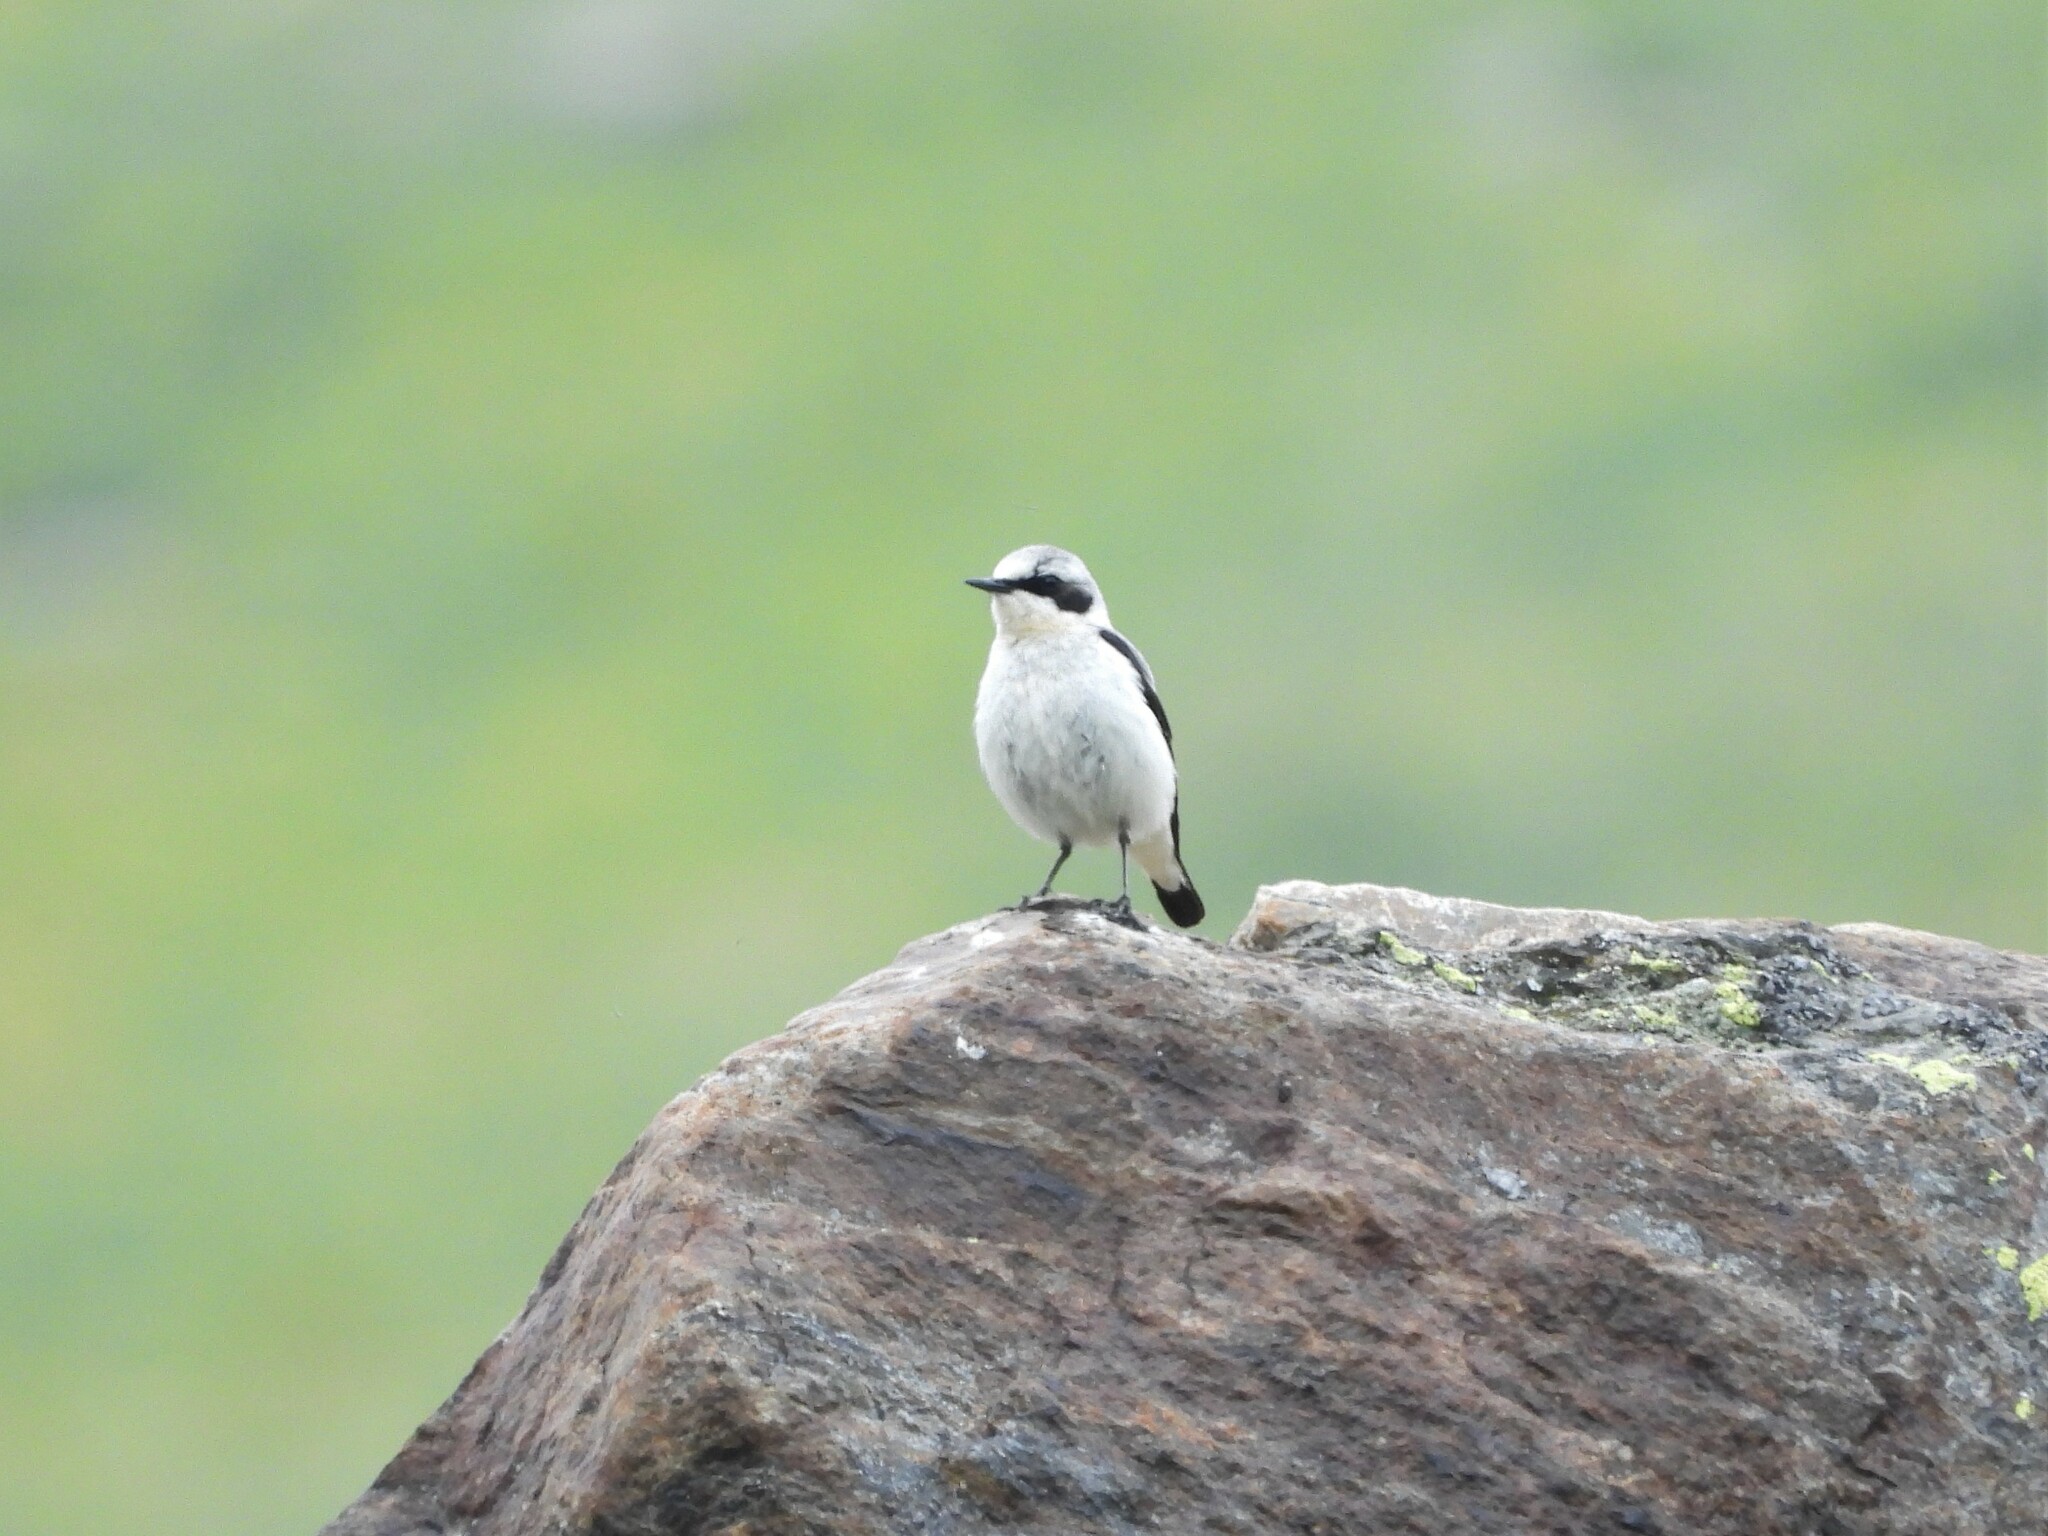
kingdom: Animalia
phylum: Chordata
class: Aves
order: Passeriformes
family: Muscicapidae
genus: Oenanthe
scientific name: Oenanthe oenanthe
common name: Northern wheatear
